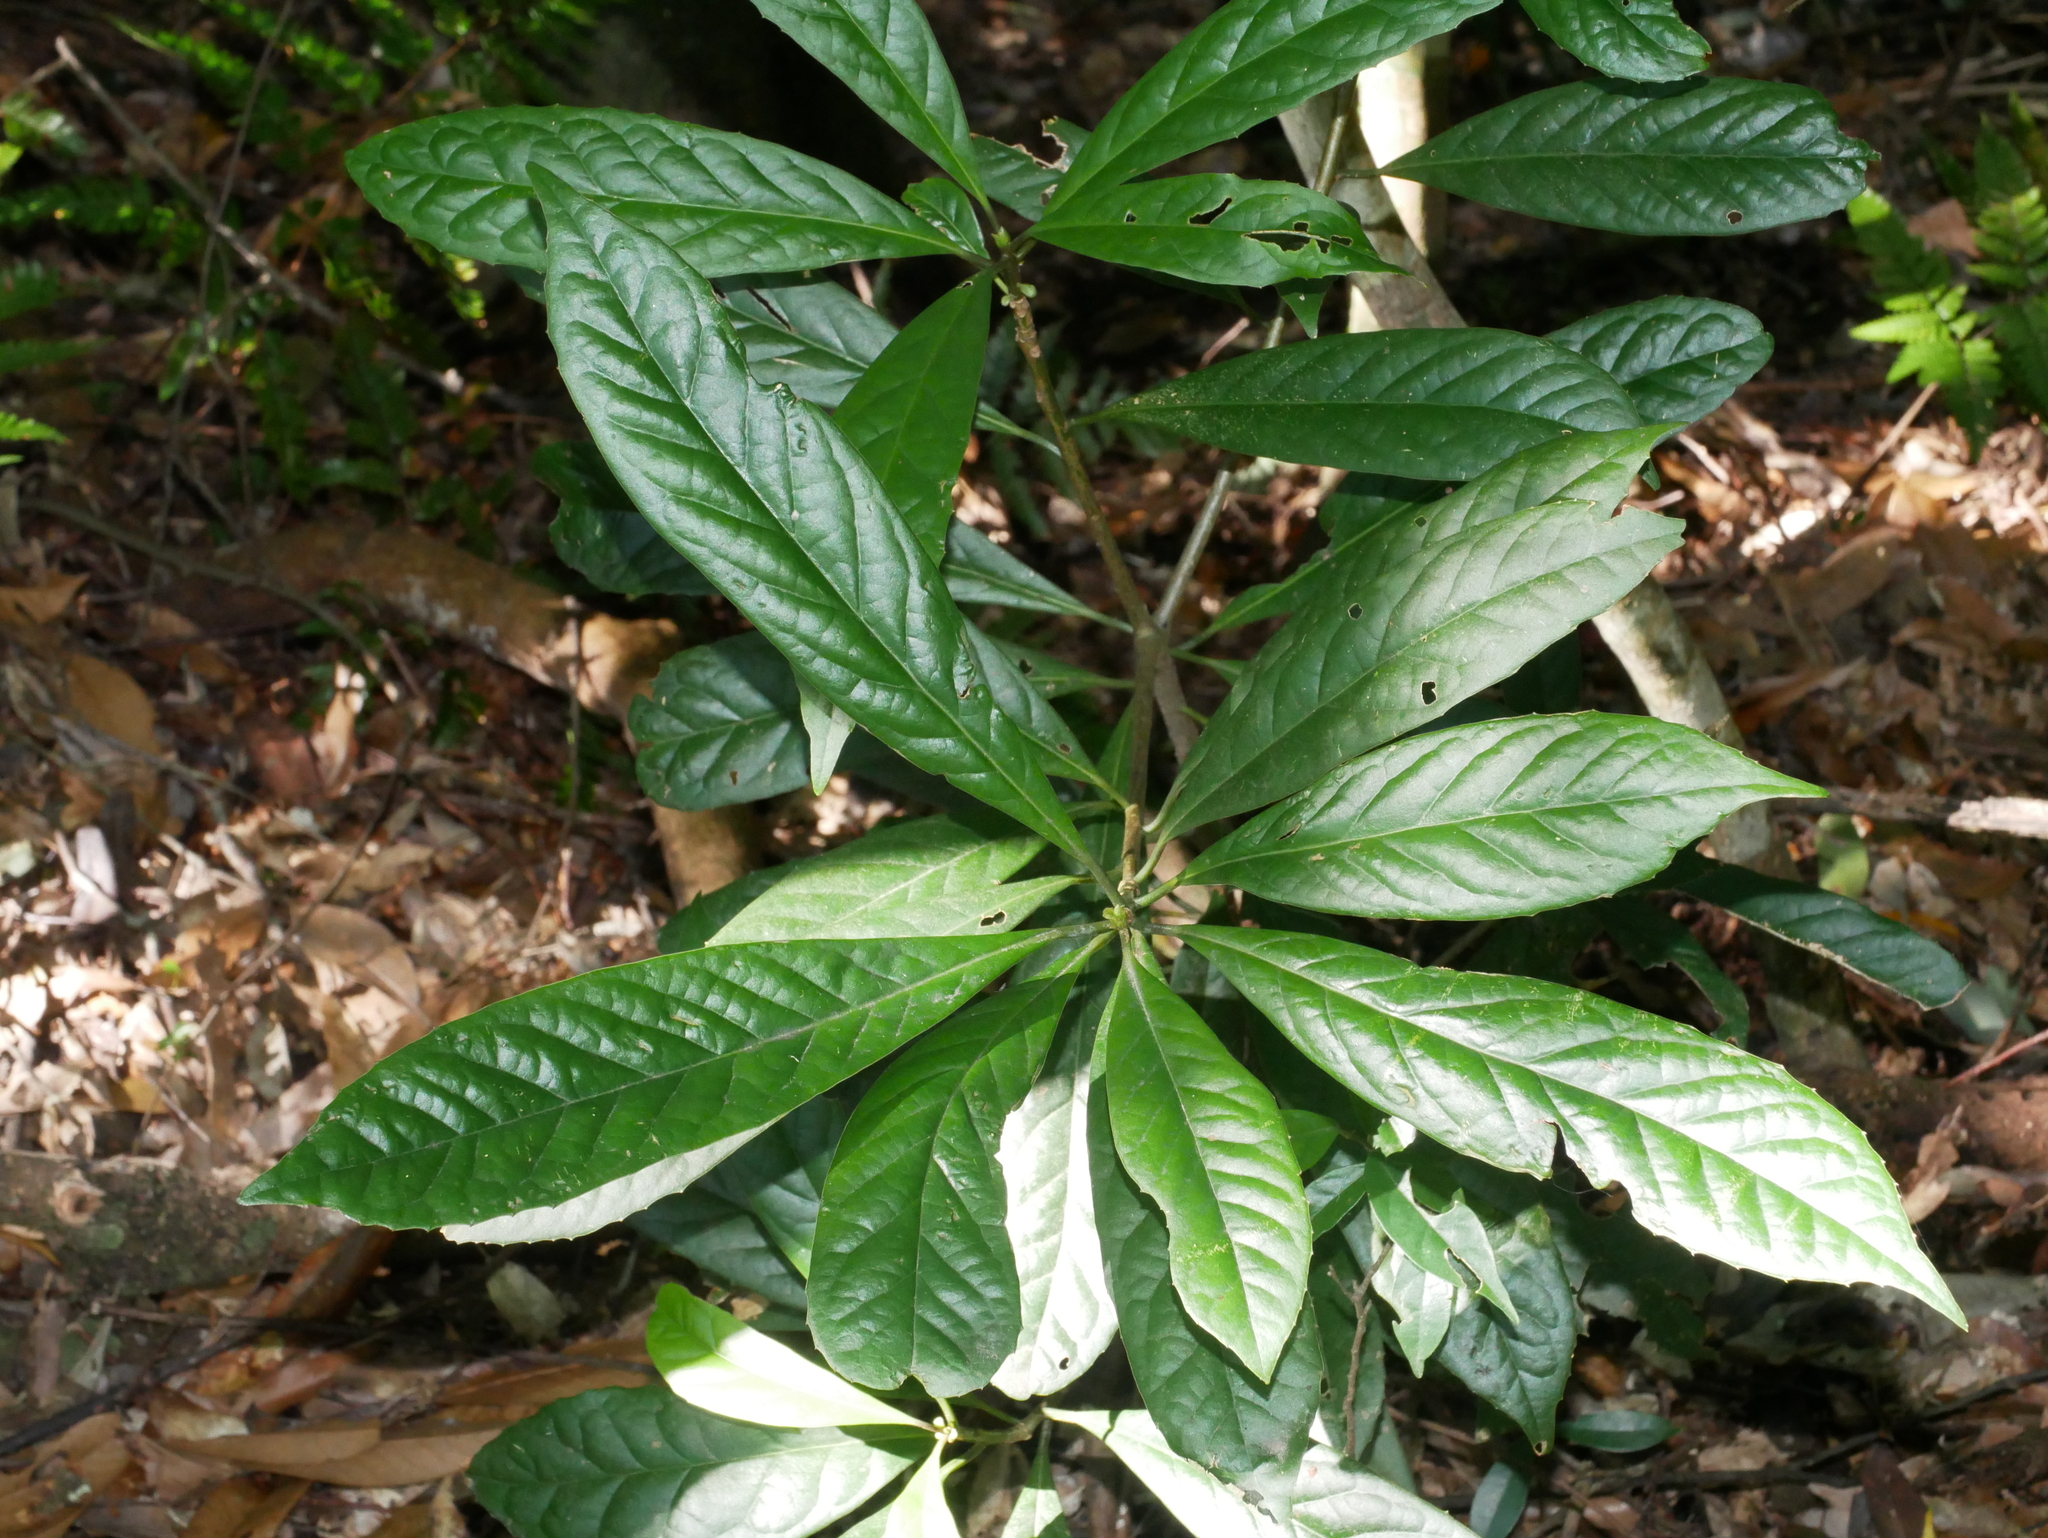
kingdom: Plantae
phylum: Tracheophyta
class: Magnoliopsida
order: Ericales
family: Symplocaceae
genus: Symplocos
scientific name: Symplocos glauca
